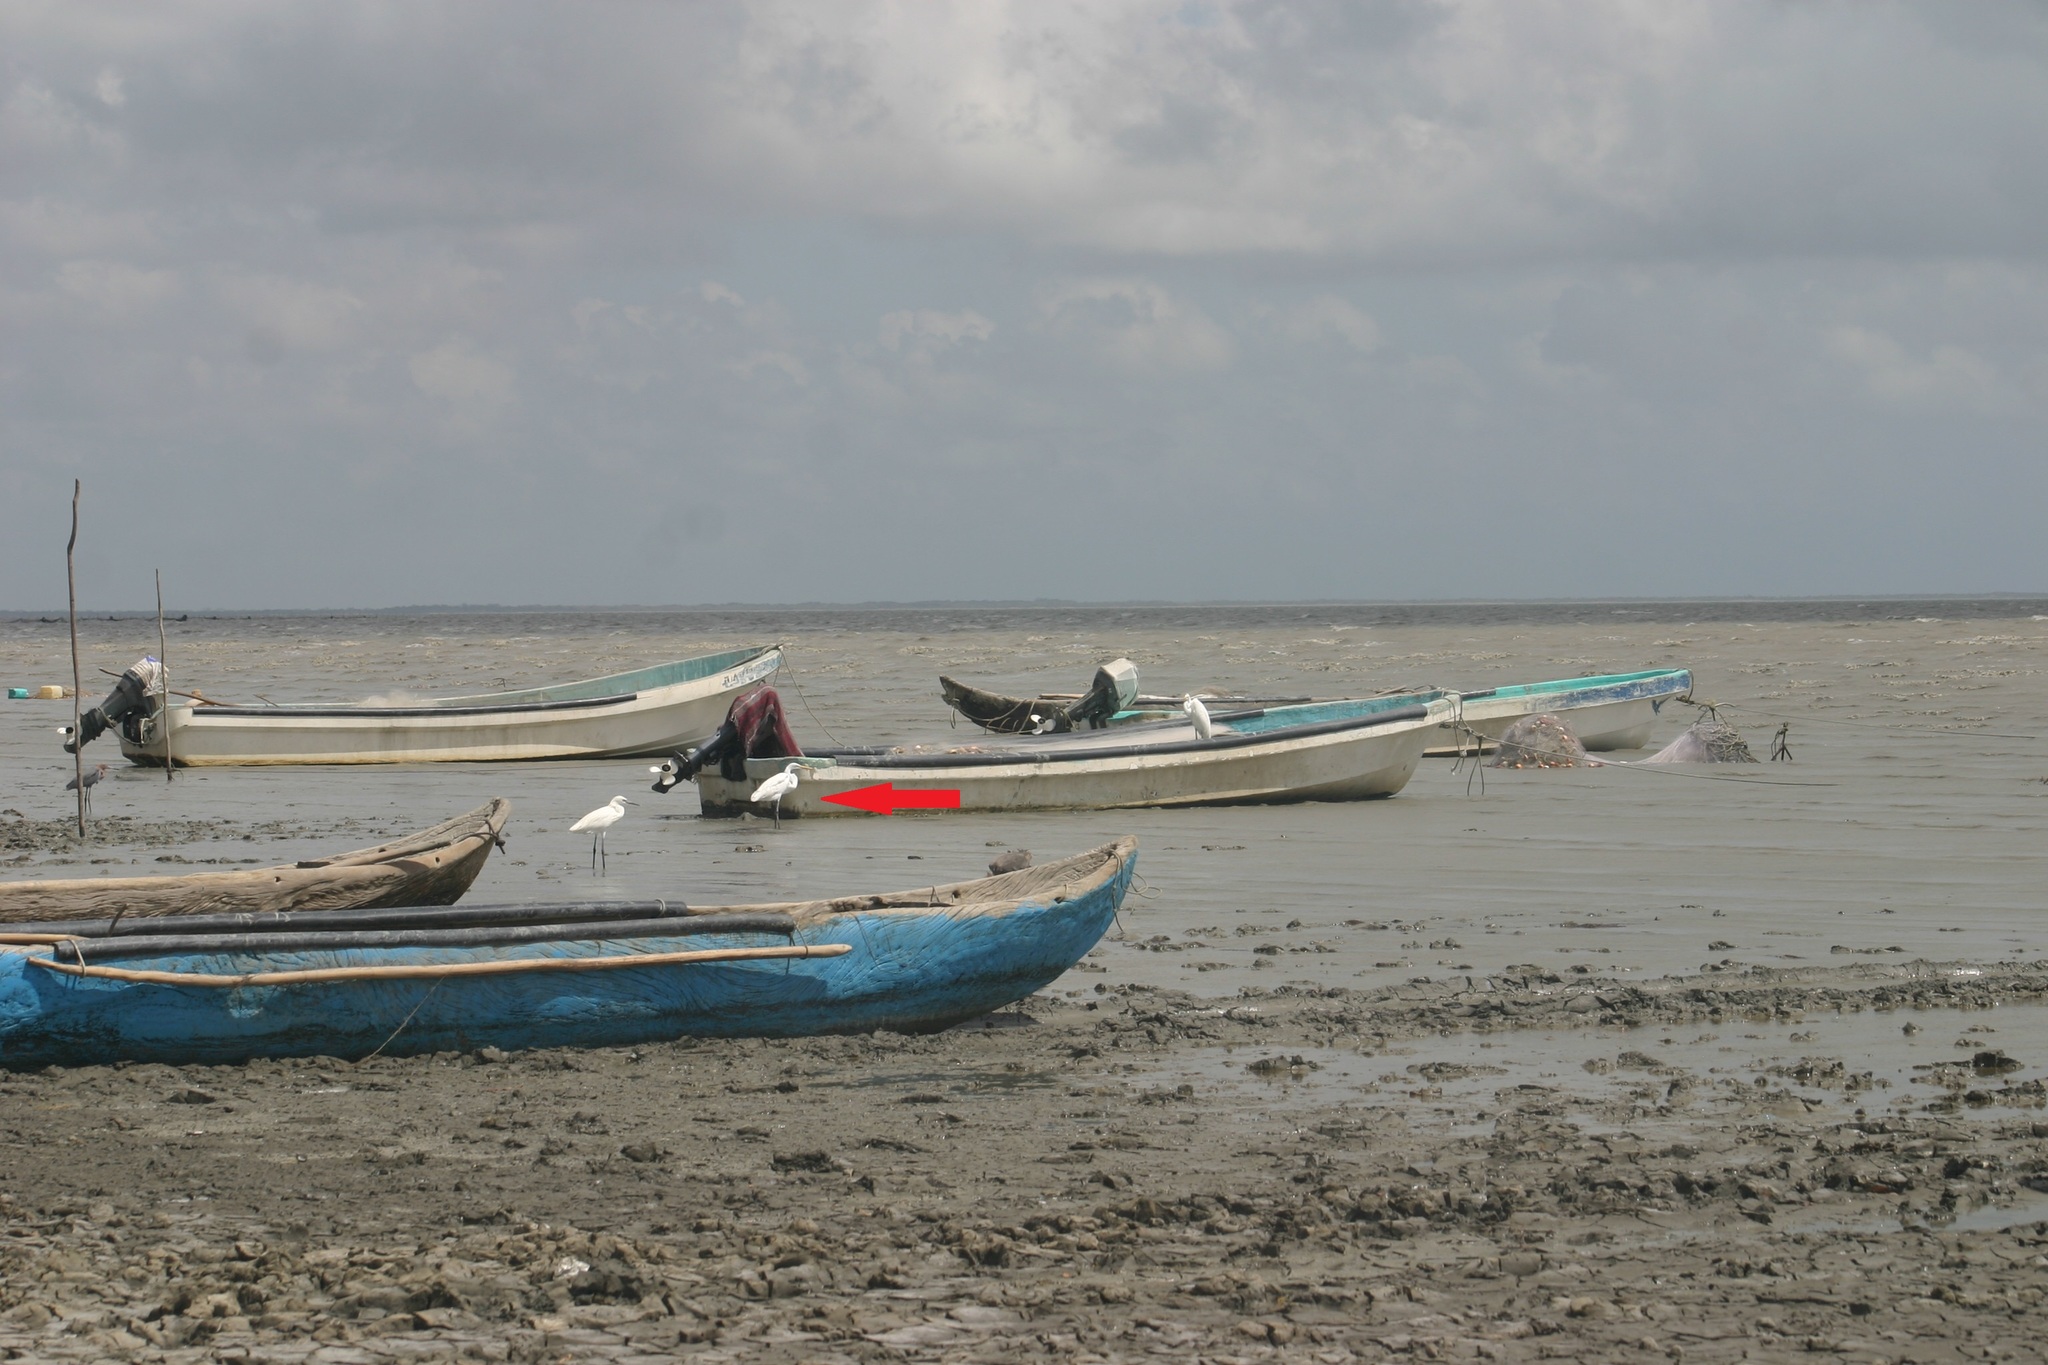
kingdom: Animalia
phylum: Chordata
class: Aves
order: Pelecaniformes
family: Ardeidae
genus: Ardea
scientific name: Ardea alba
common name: Great egret
